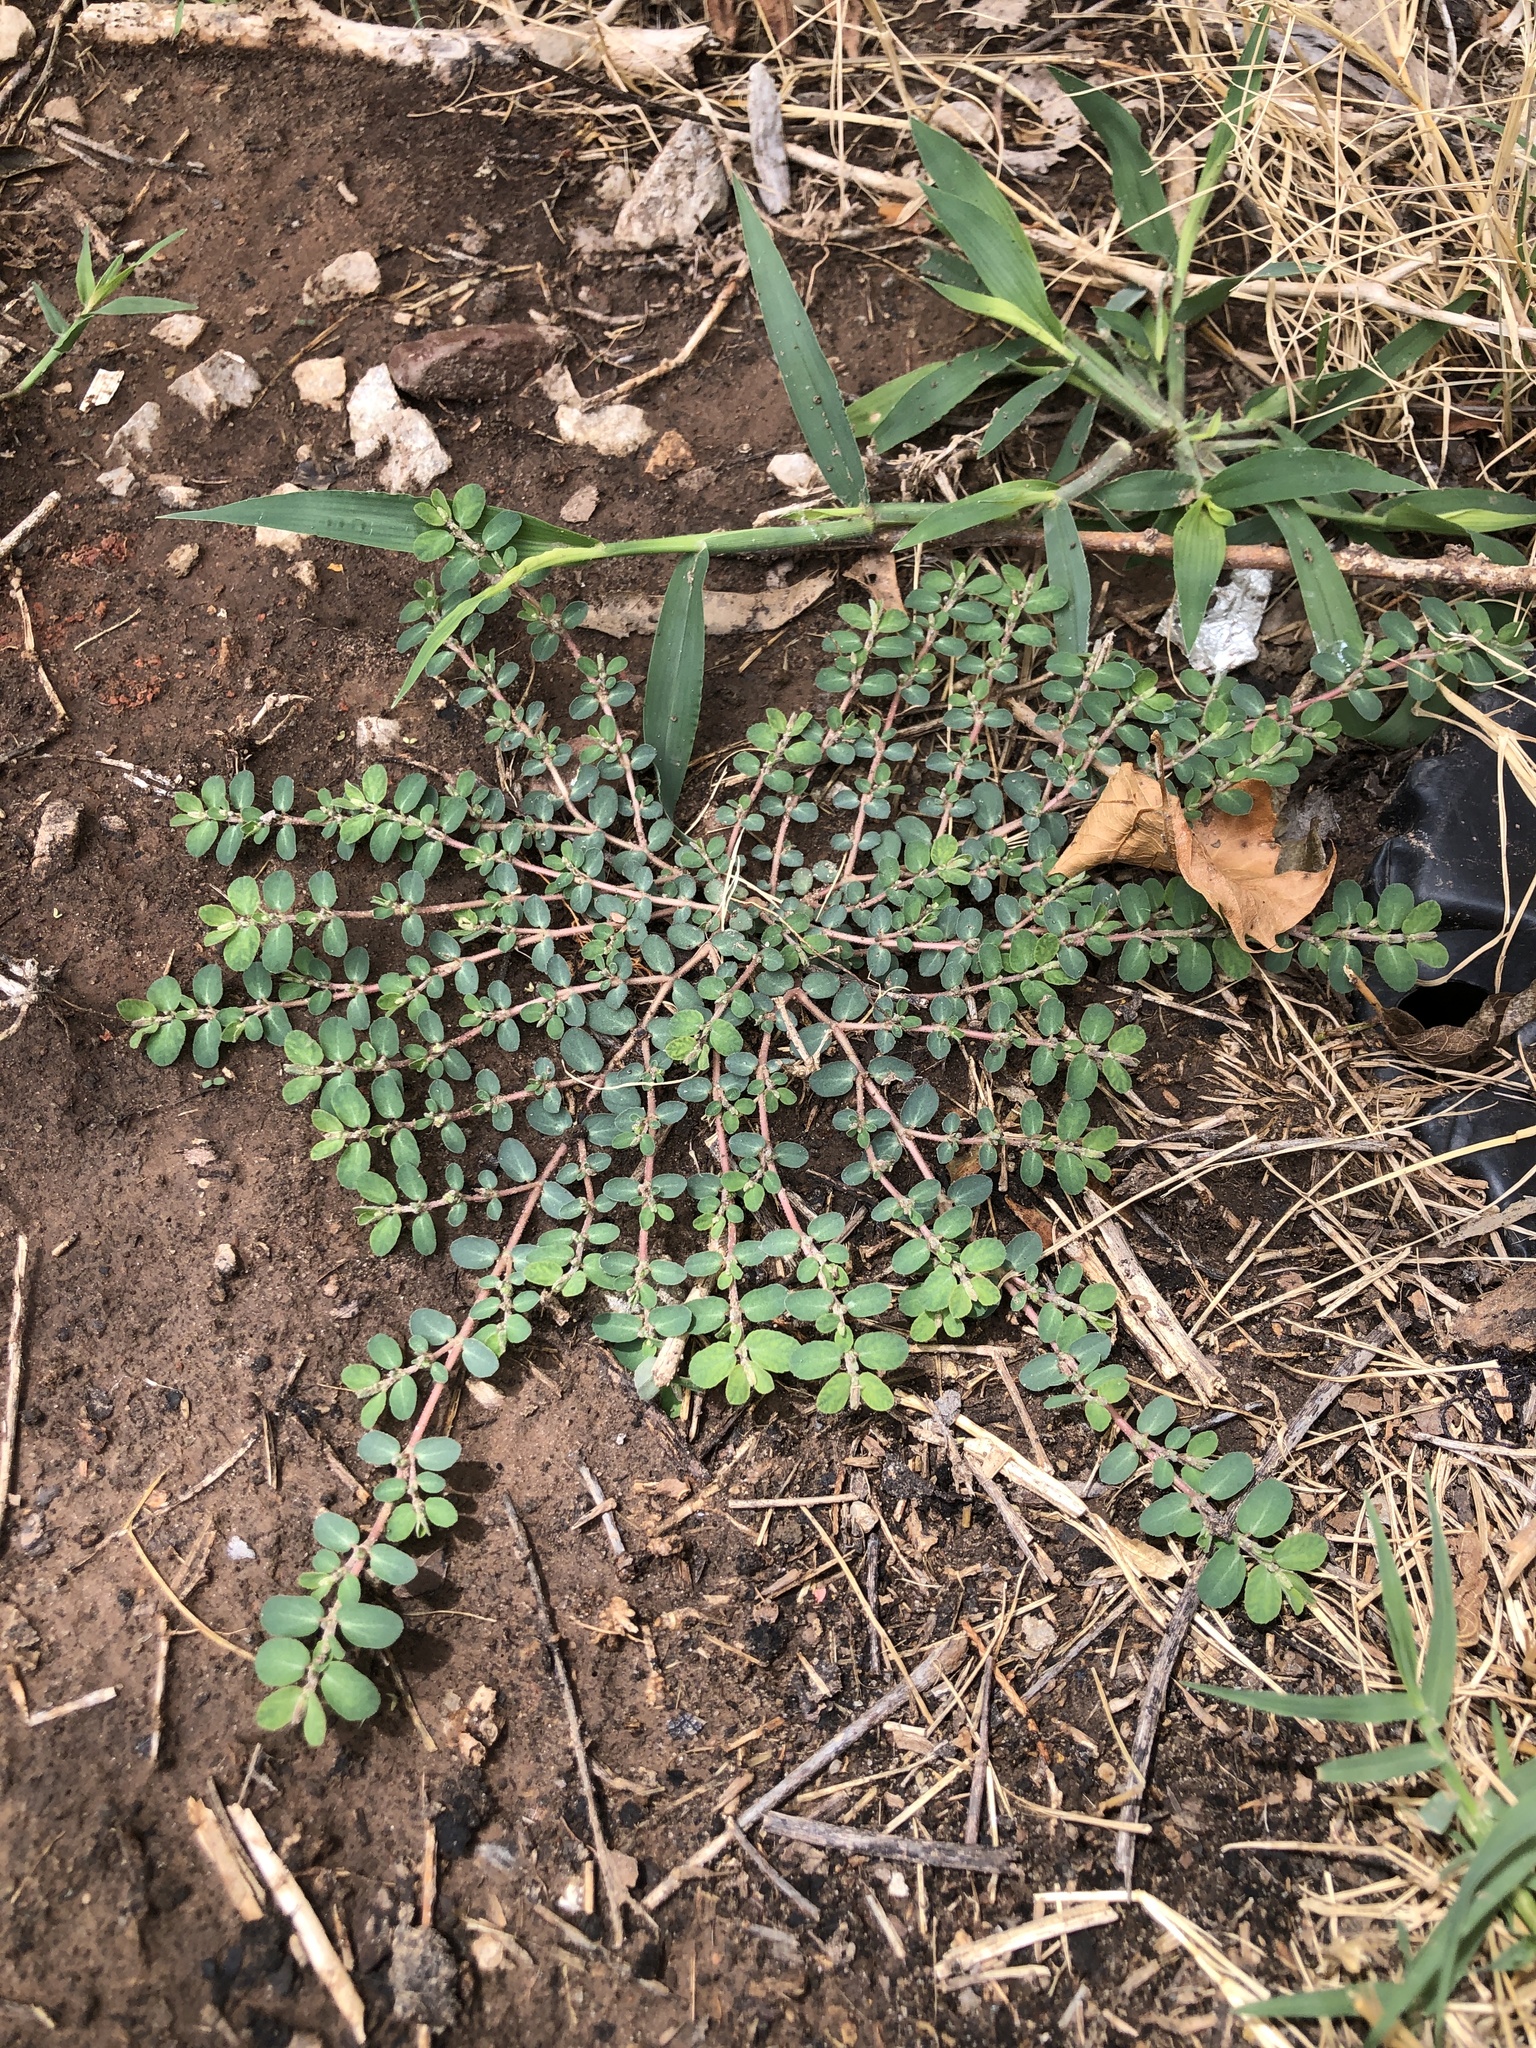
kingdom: Plantae
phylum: Tracheophyta
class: Magnoliopsida
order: Malpighiales
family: Euphorbiaceae
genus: Euphorbia
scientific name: Euphorbia prostrata
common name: Prostrate sandmat
